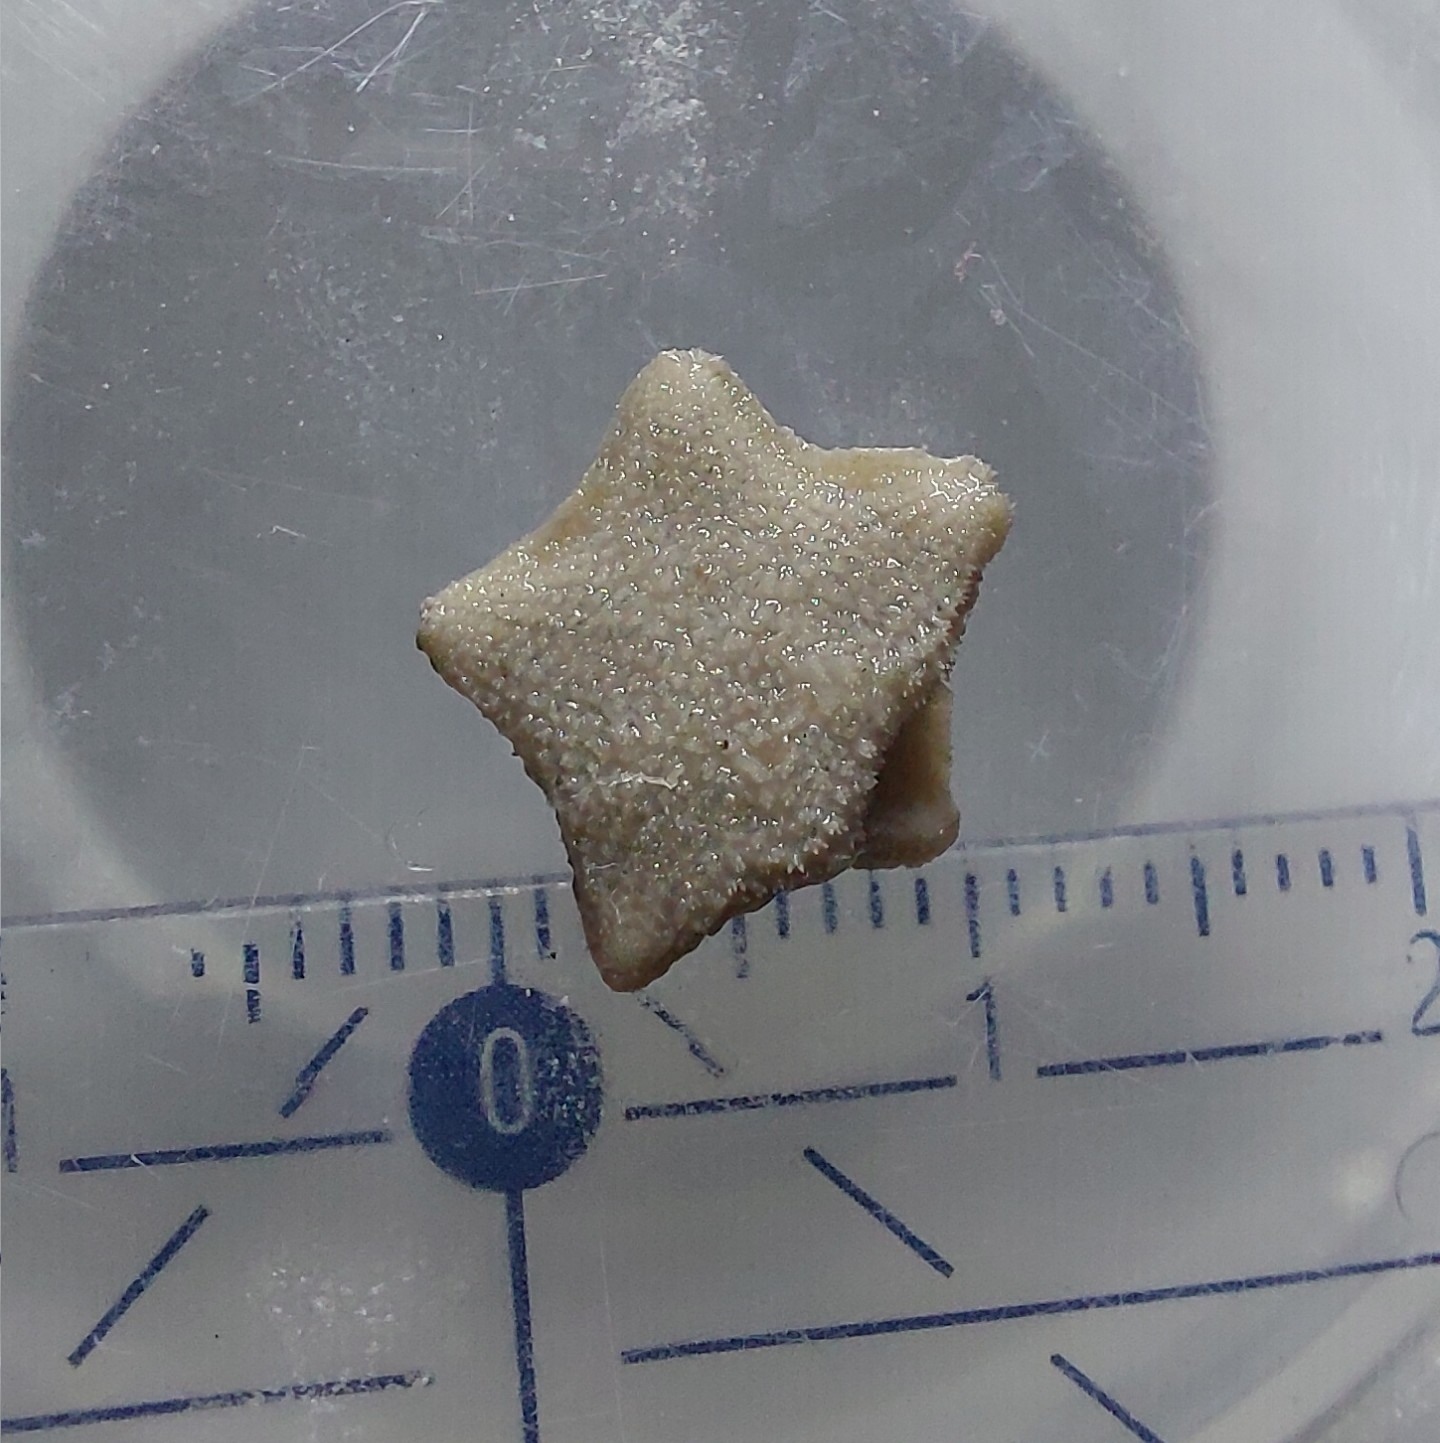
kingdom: Animalia
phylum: Echinodermata
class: Asteroidea
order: Valvatida
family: Asterinidae
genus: Asterina
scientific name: Asterina gibbosa
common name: Cushion star
